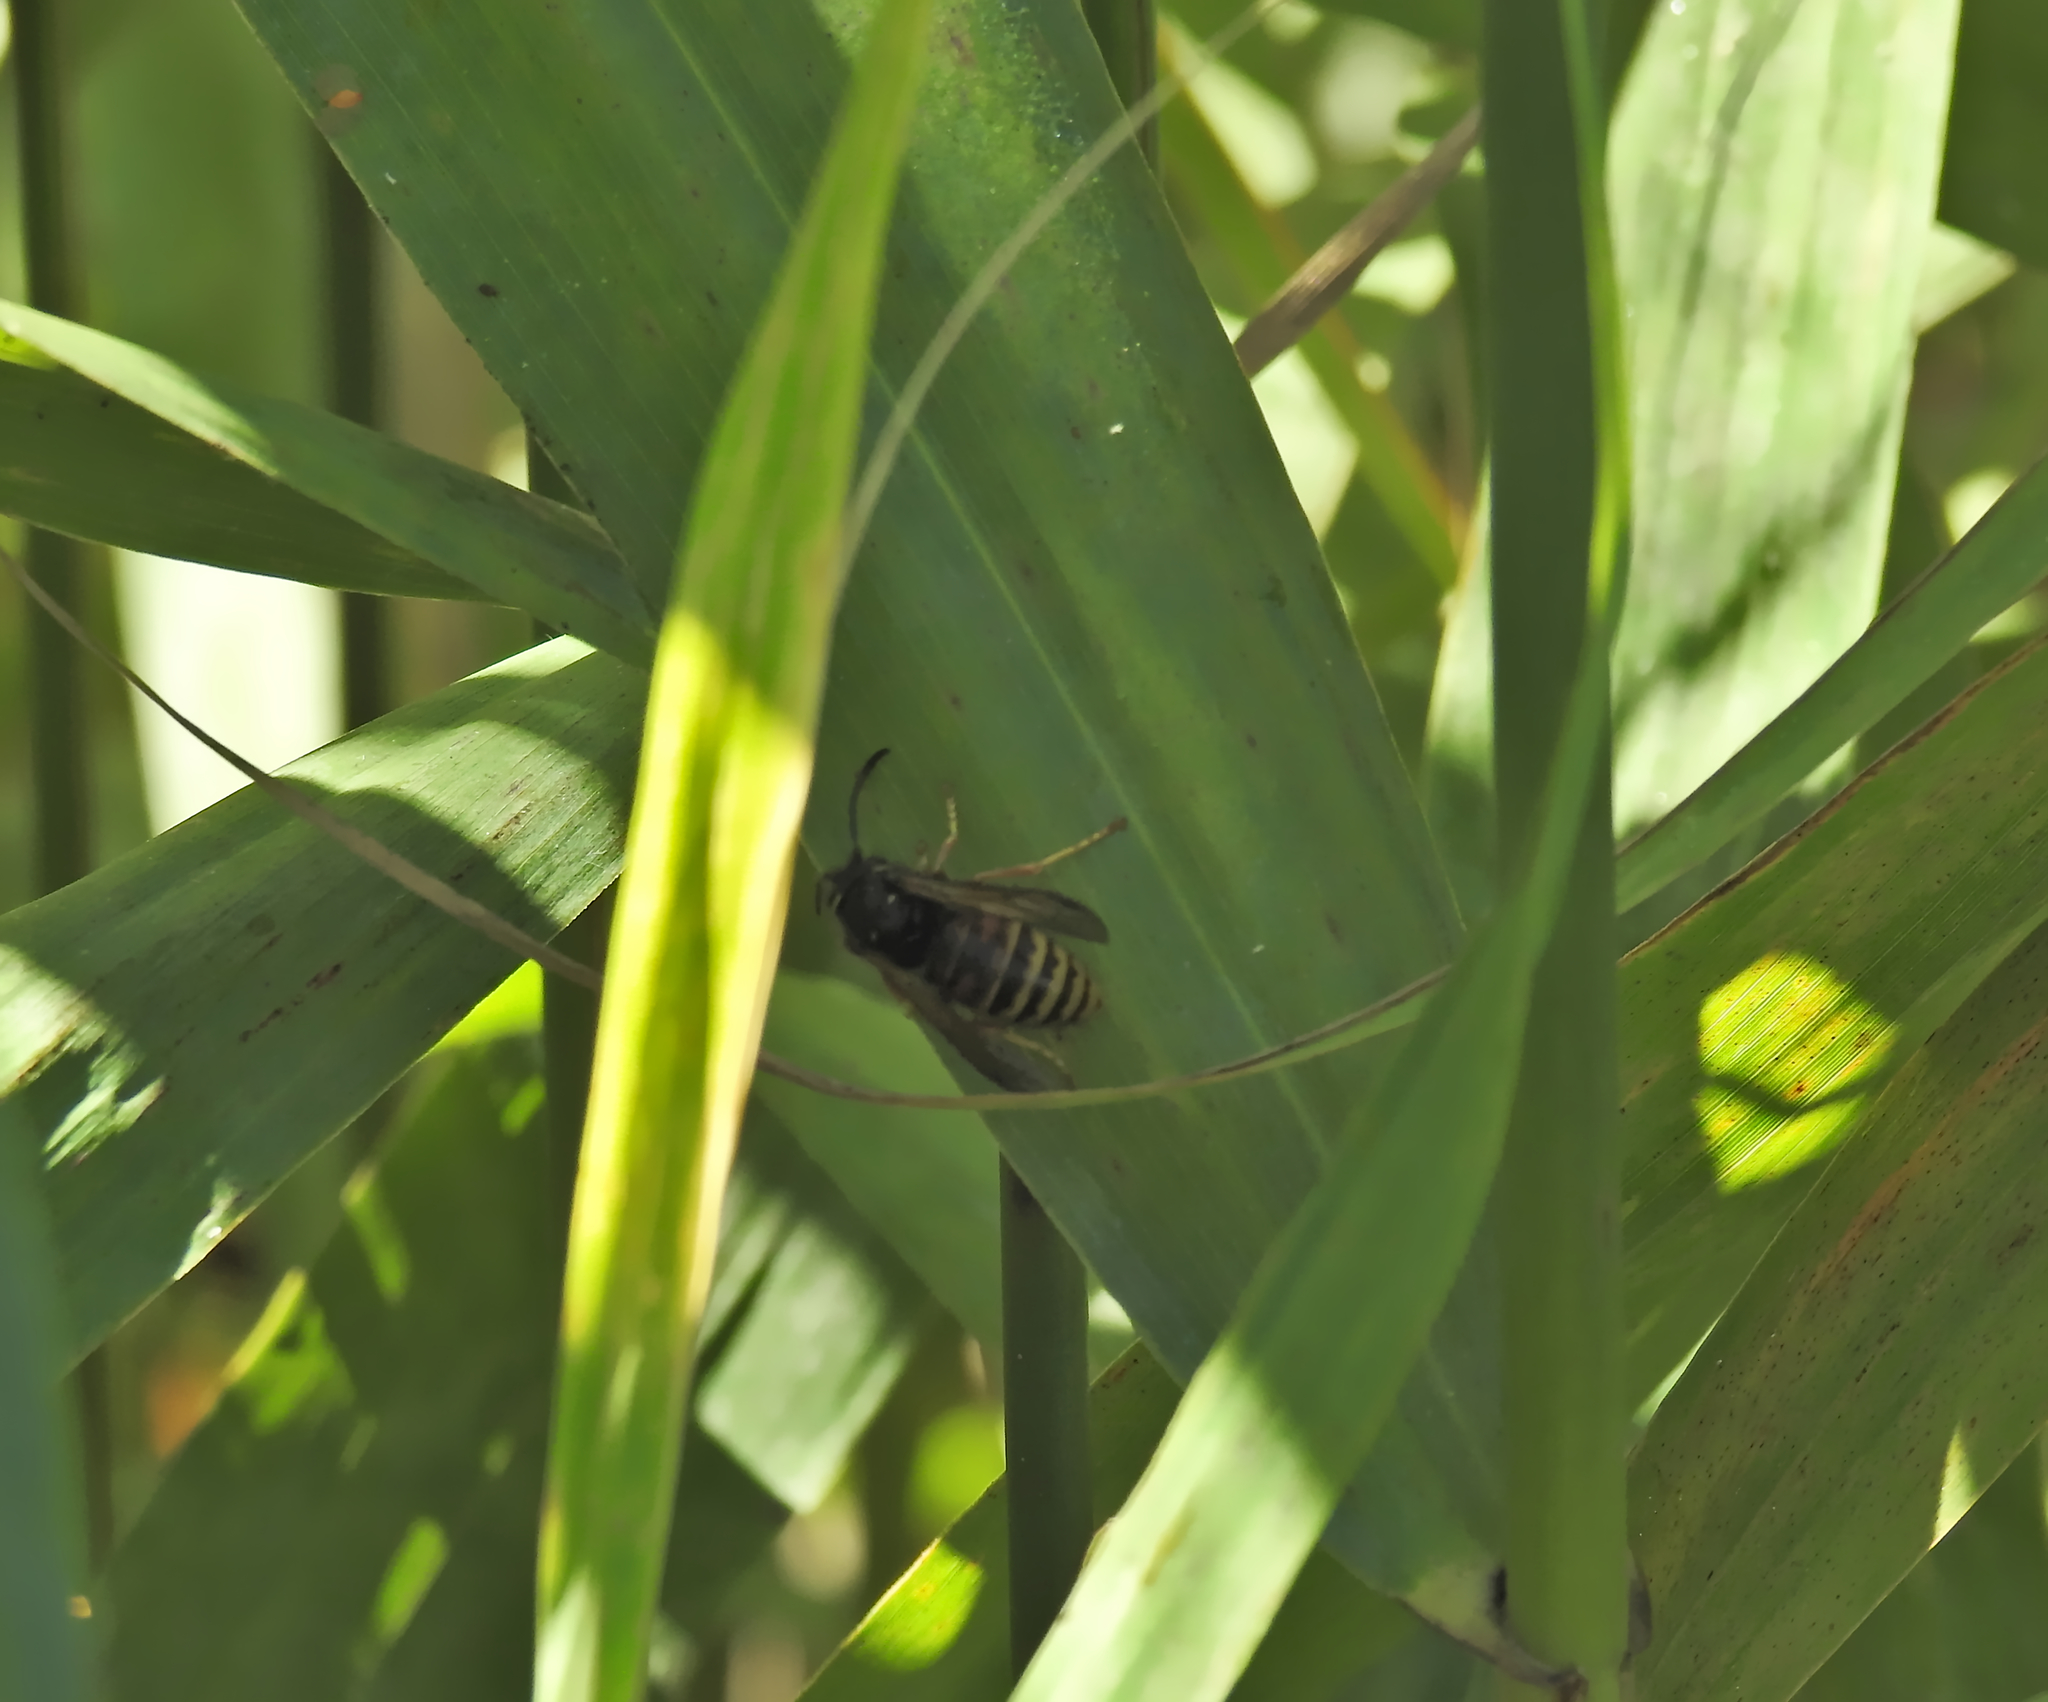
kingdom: Animalia
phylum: Arthropoda
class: Insecta
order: Hymenoptera
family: Vespidae
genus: Vespula
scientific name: Vespula rufa
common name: Red wasp
